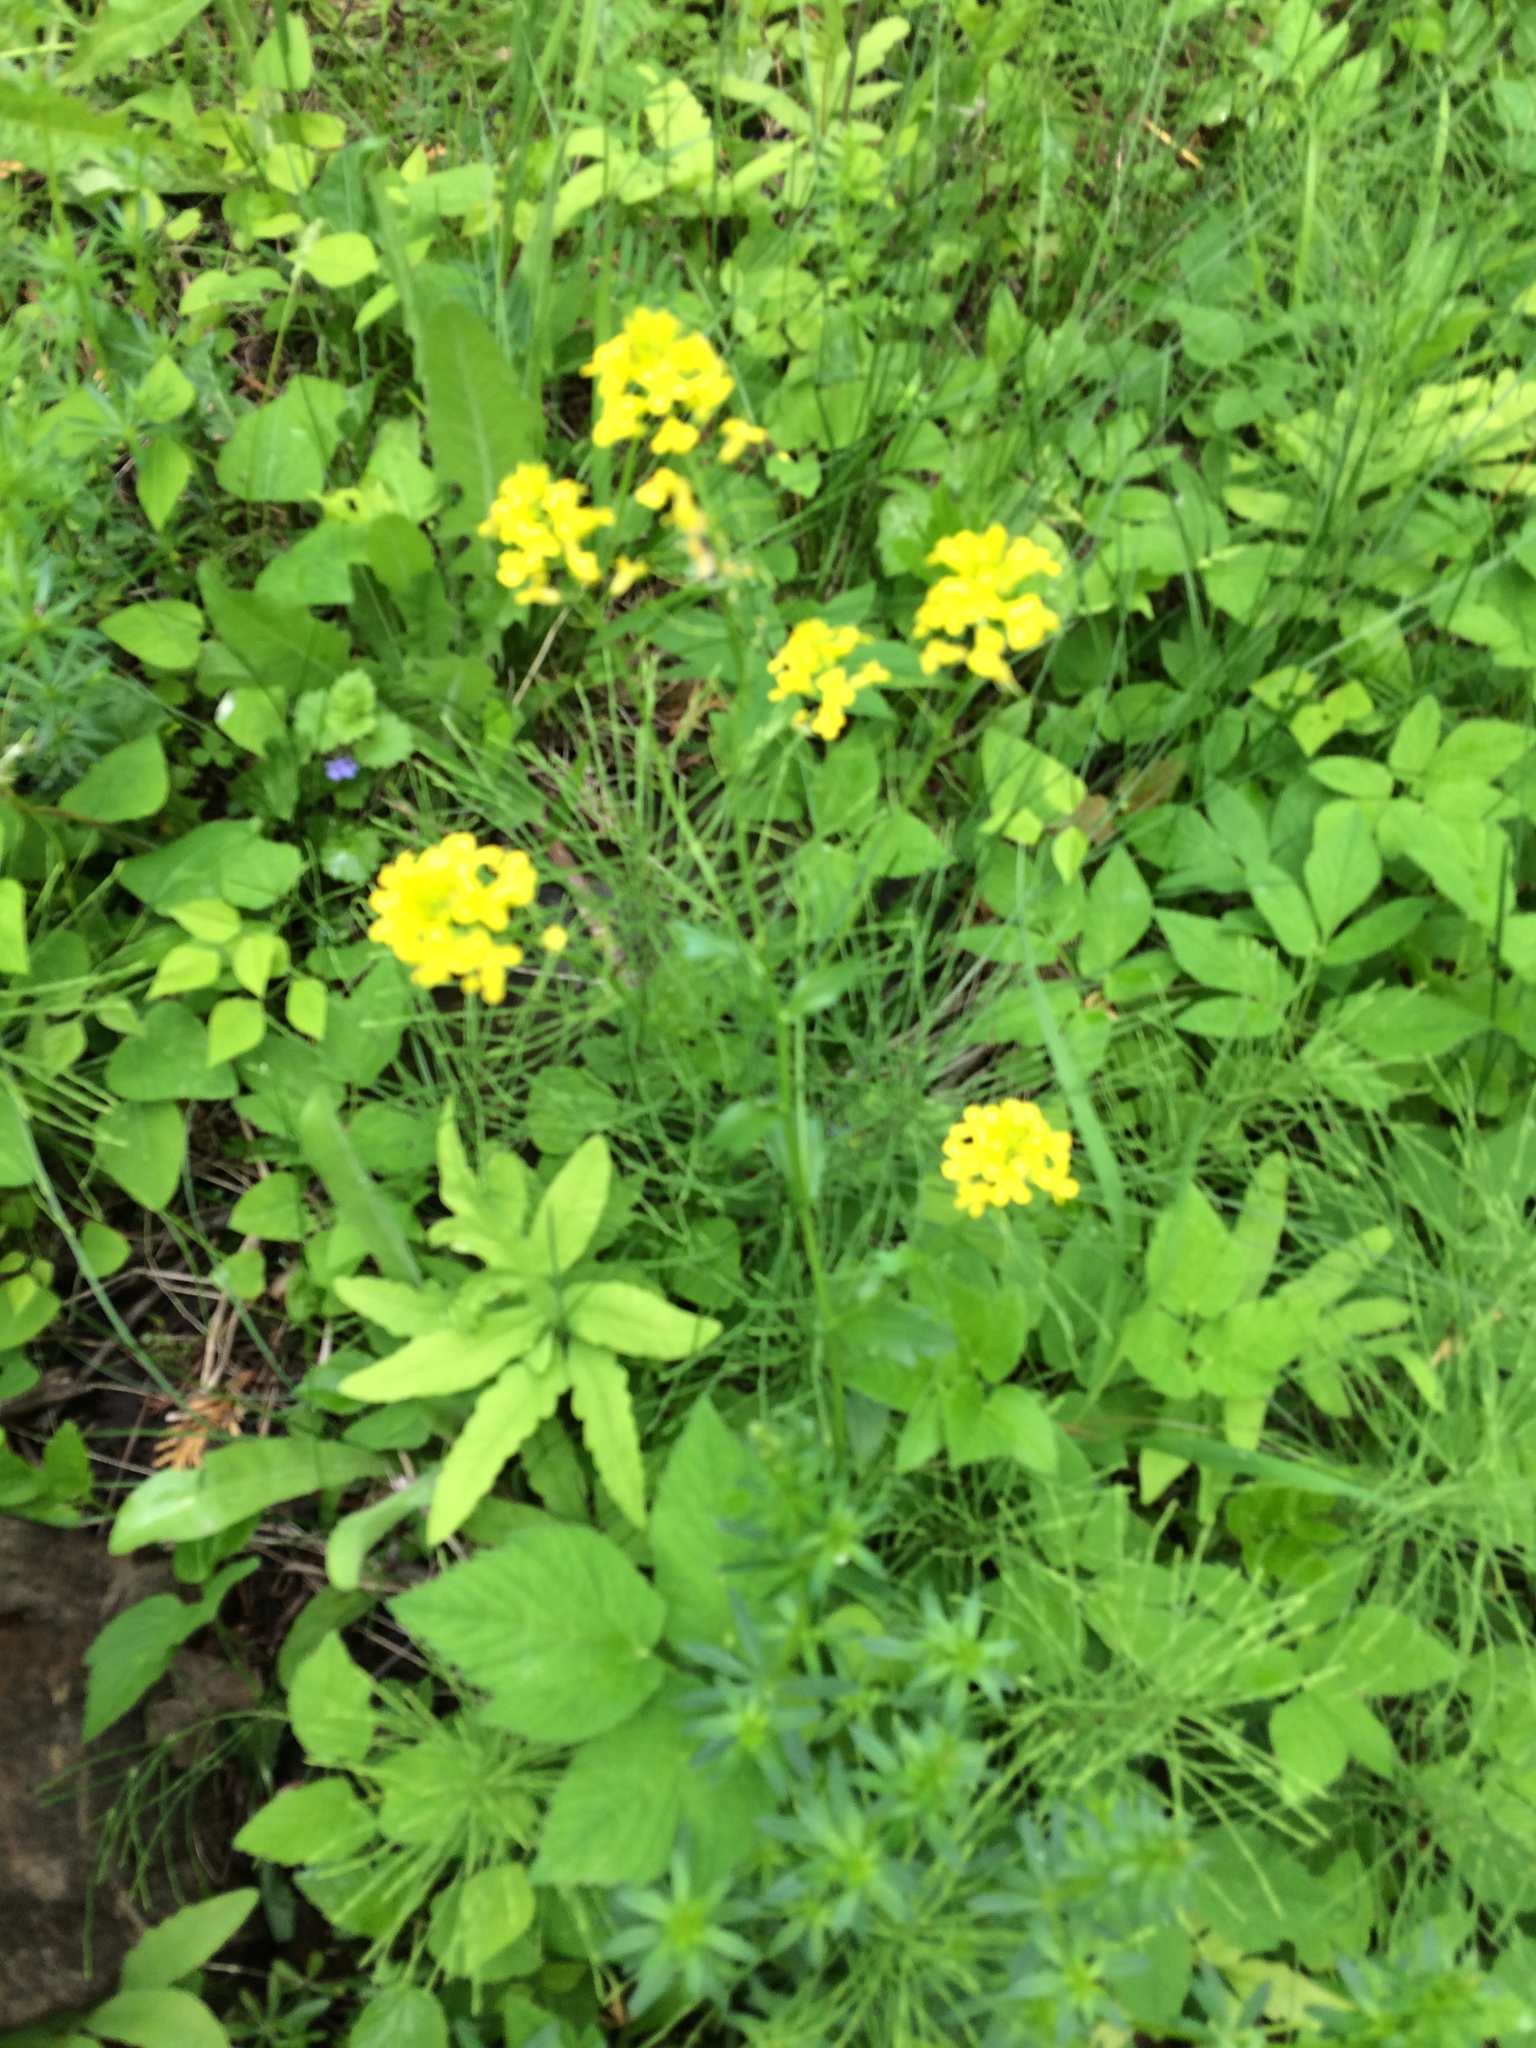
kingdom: Plantae
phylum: Tracheophyta
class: Magnoliopsida
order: Brassicales
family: Brassicaceae
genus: Barbarea
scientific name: Barbarea vulgaris
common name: Cressy-greens
